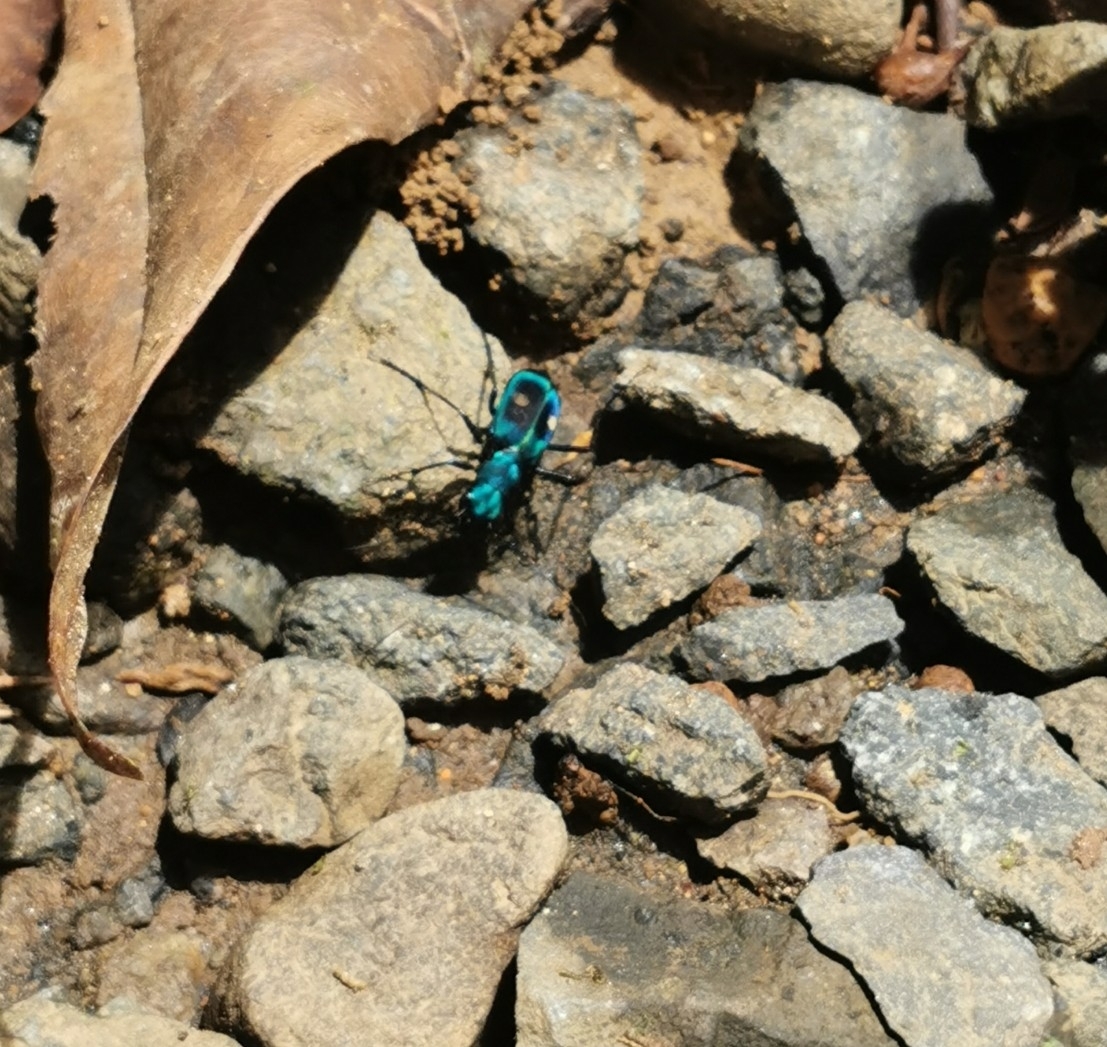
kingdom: Animalia
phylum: Arthropoda
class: Insecta
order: Coleoptera
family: Carabidae
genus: Pseudoxycheila
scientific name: Pseudoxycheila tarsalis
